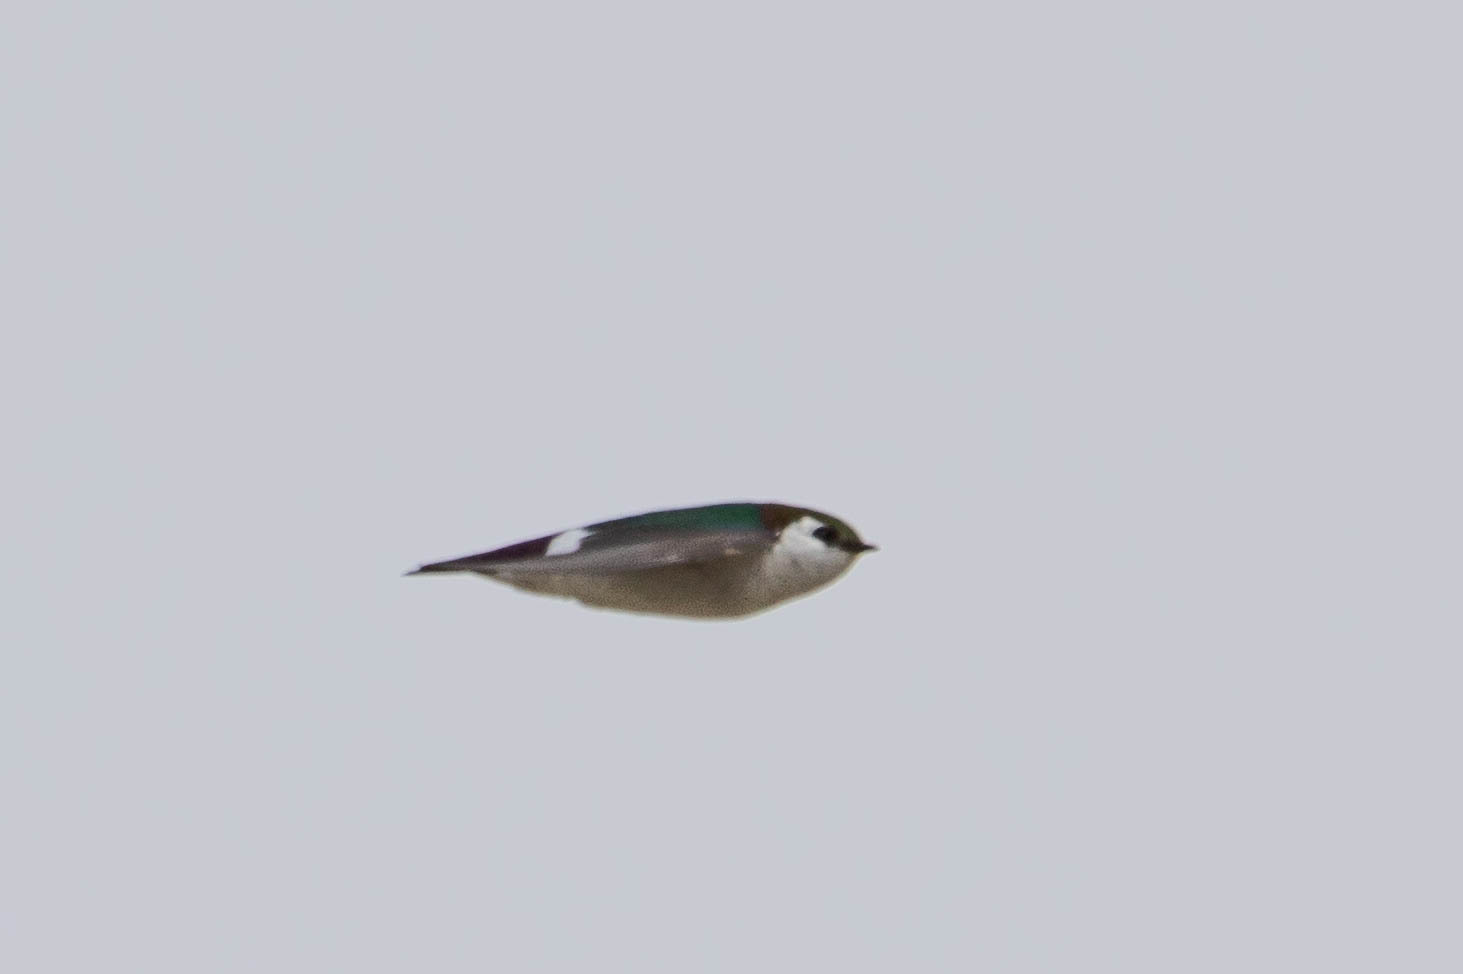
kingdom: Animalia
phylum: Chordata
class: Aves
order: Passeriformes
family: Hirundinidae
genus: Tachycineta
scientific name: Tachycineta thalassina
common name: Violet-green swallow
